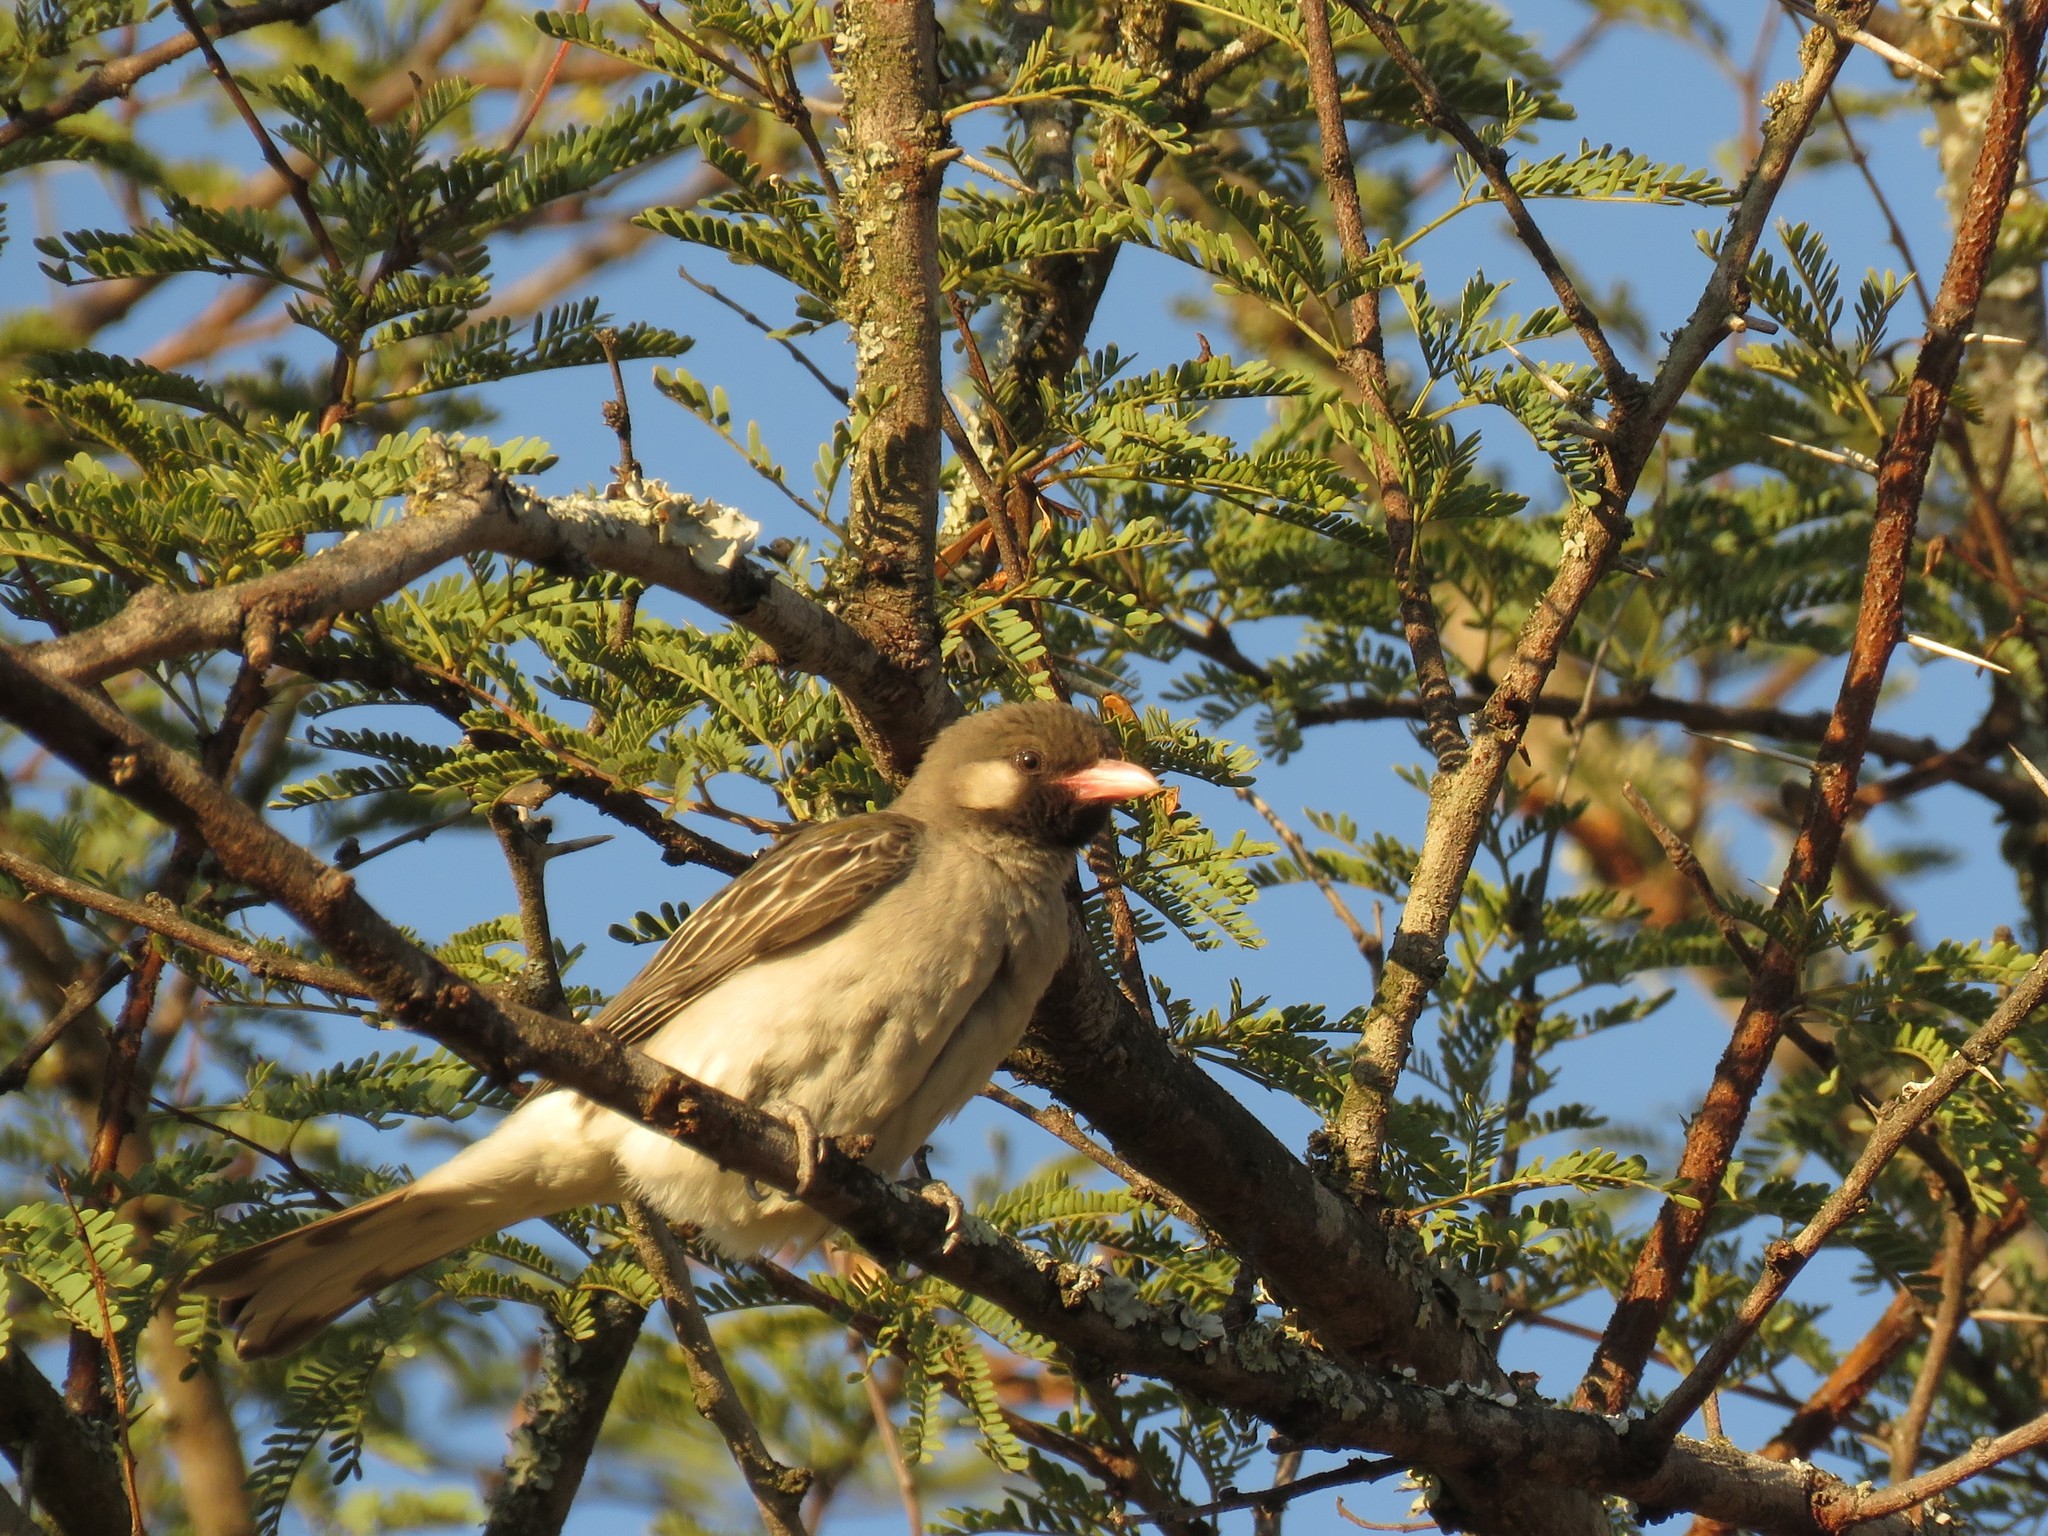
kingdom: Animalia
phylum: Chordata
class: Aves
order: Piciformes
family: Indicatoridae
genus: Indicator
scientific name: Indicator indicator
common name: Greater honeyguide
